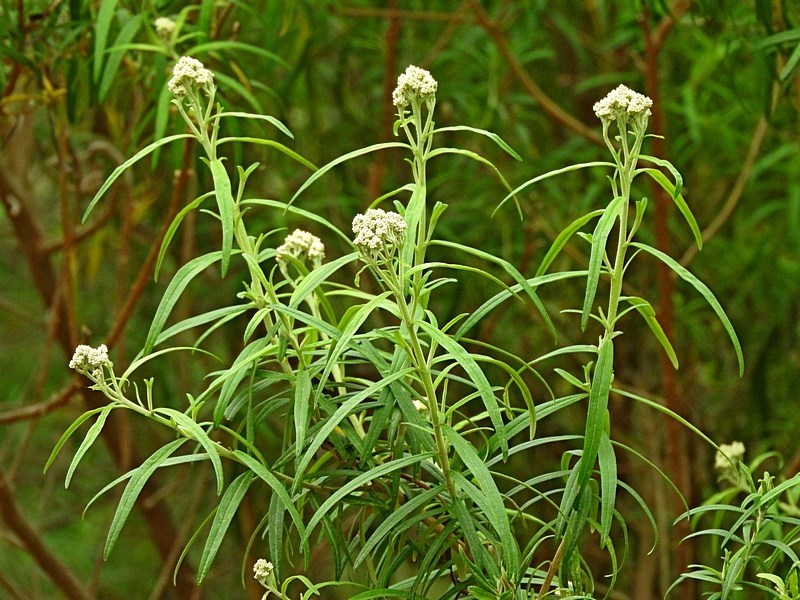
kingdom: Plantae
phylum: Tracheophyta
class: Magnoliopsida
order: Asterales
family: Asteraceae
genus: Cassinia
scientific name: Cassinia trinerva
